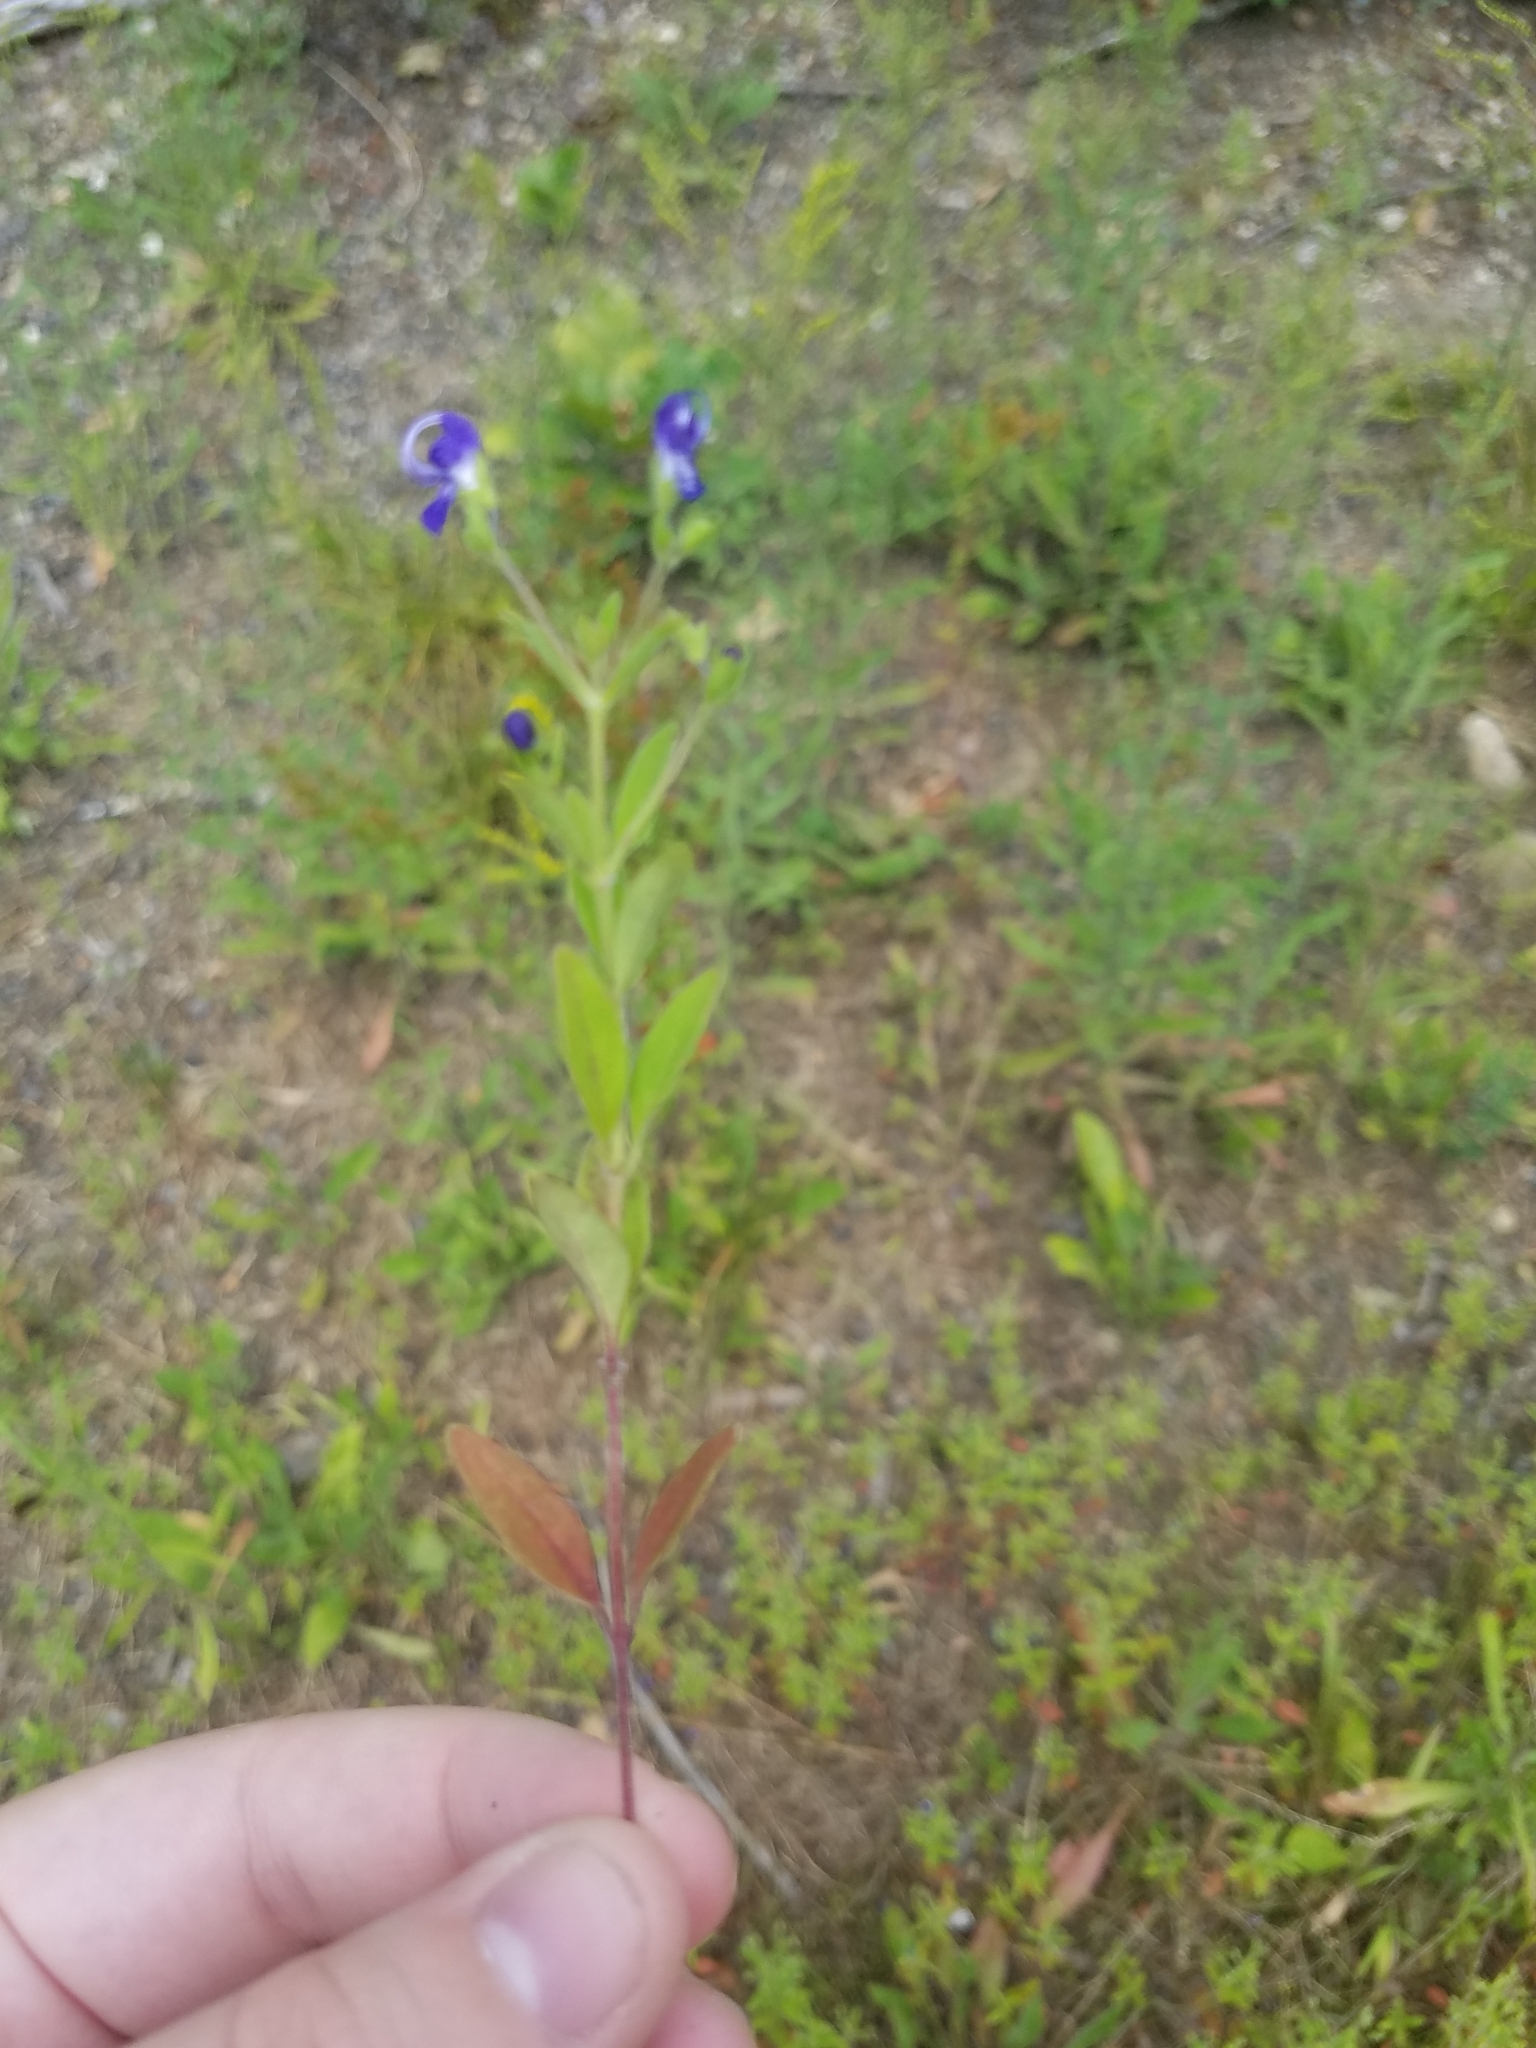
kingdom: Plantae
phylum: Tracheophyta
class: Magnoliopsida
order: Lamiales
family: Lamiaceae
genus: Trichostema
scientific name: Trichostema dichotomum
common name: Bastard pennyroyal
